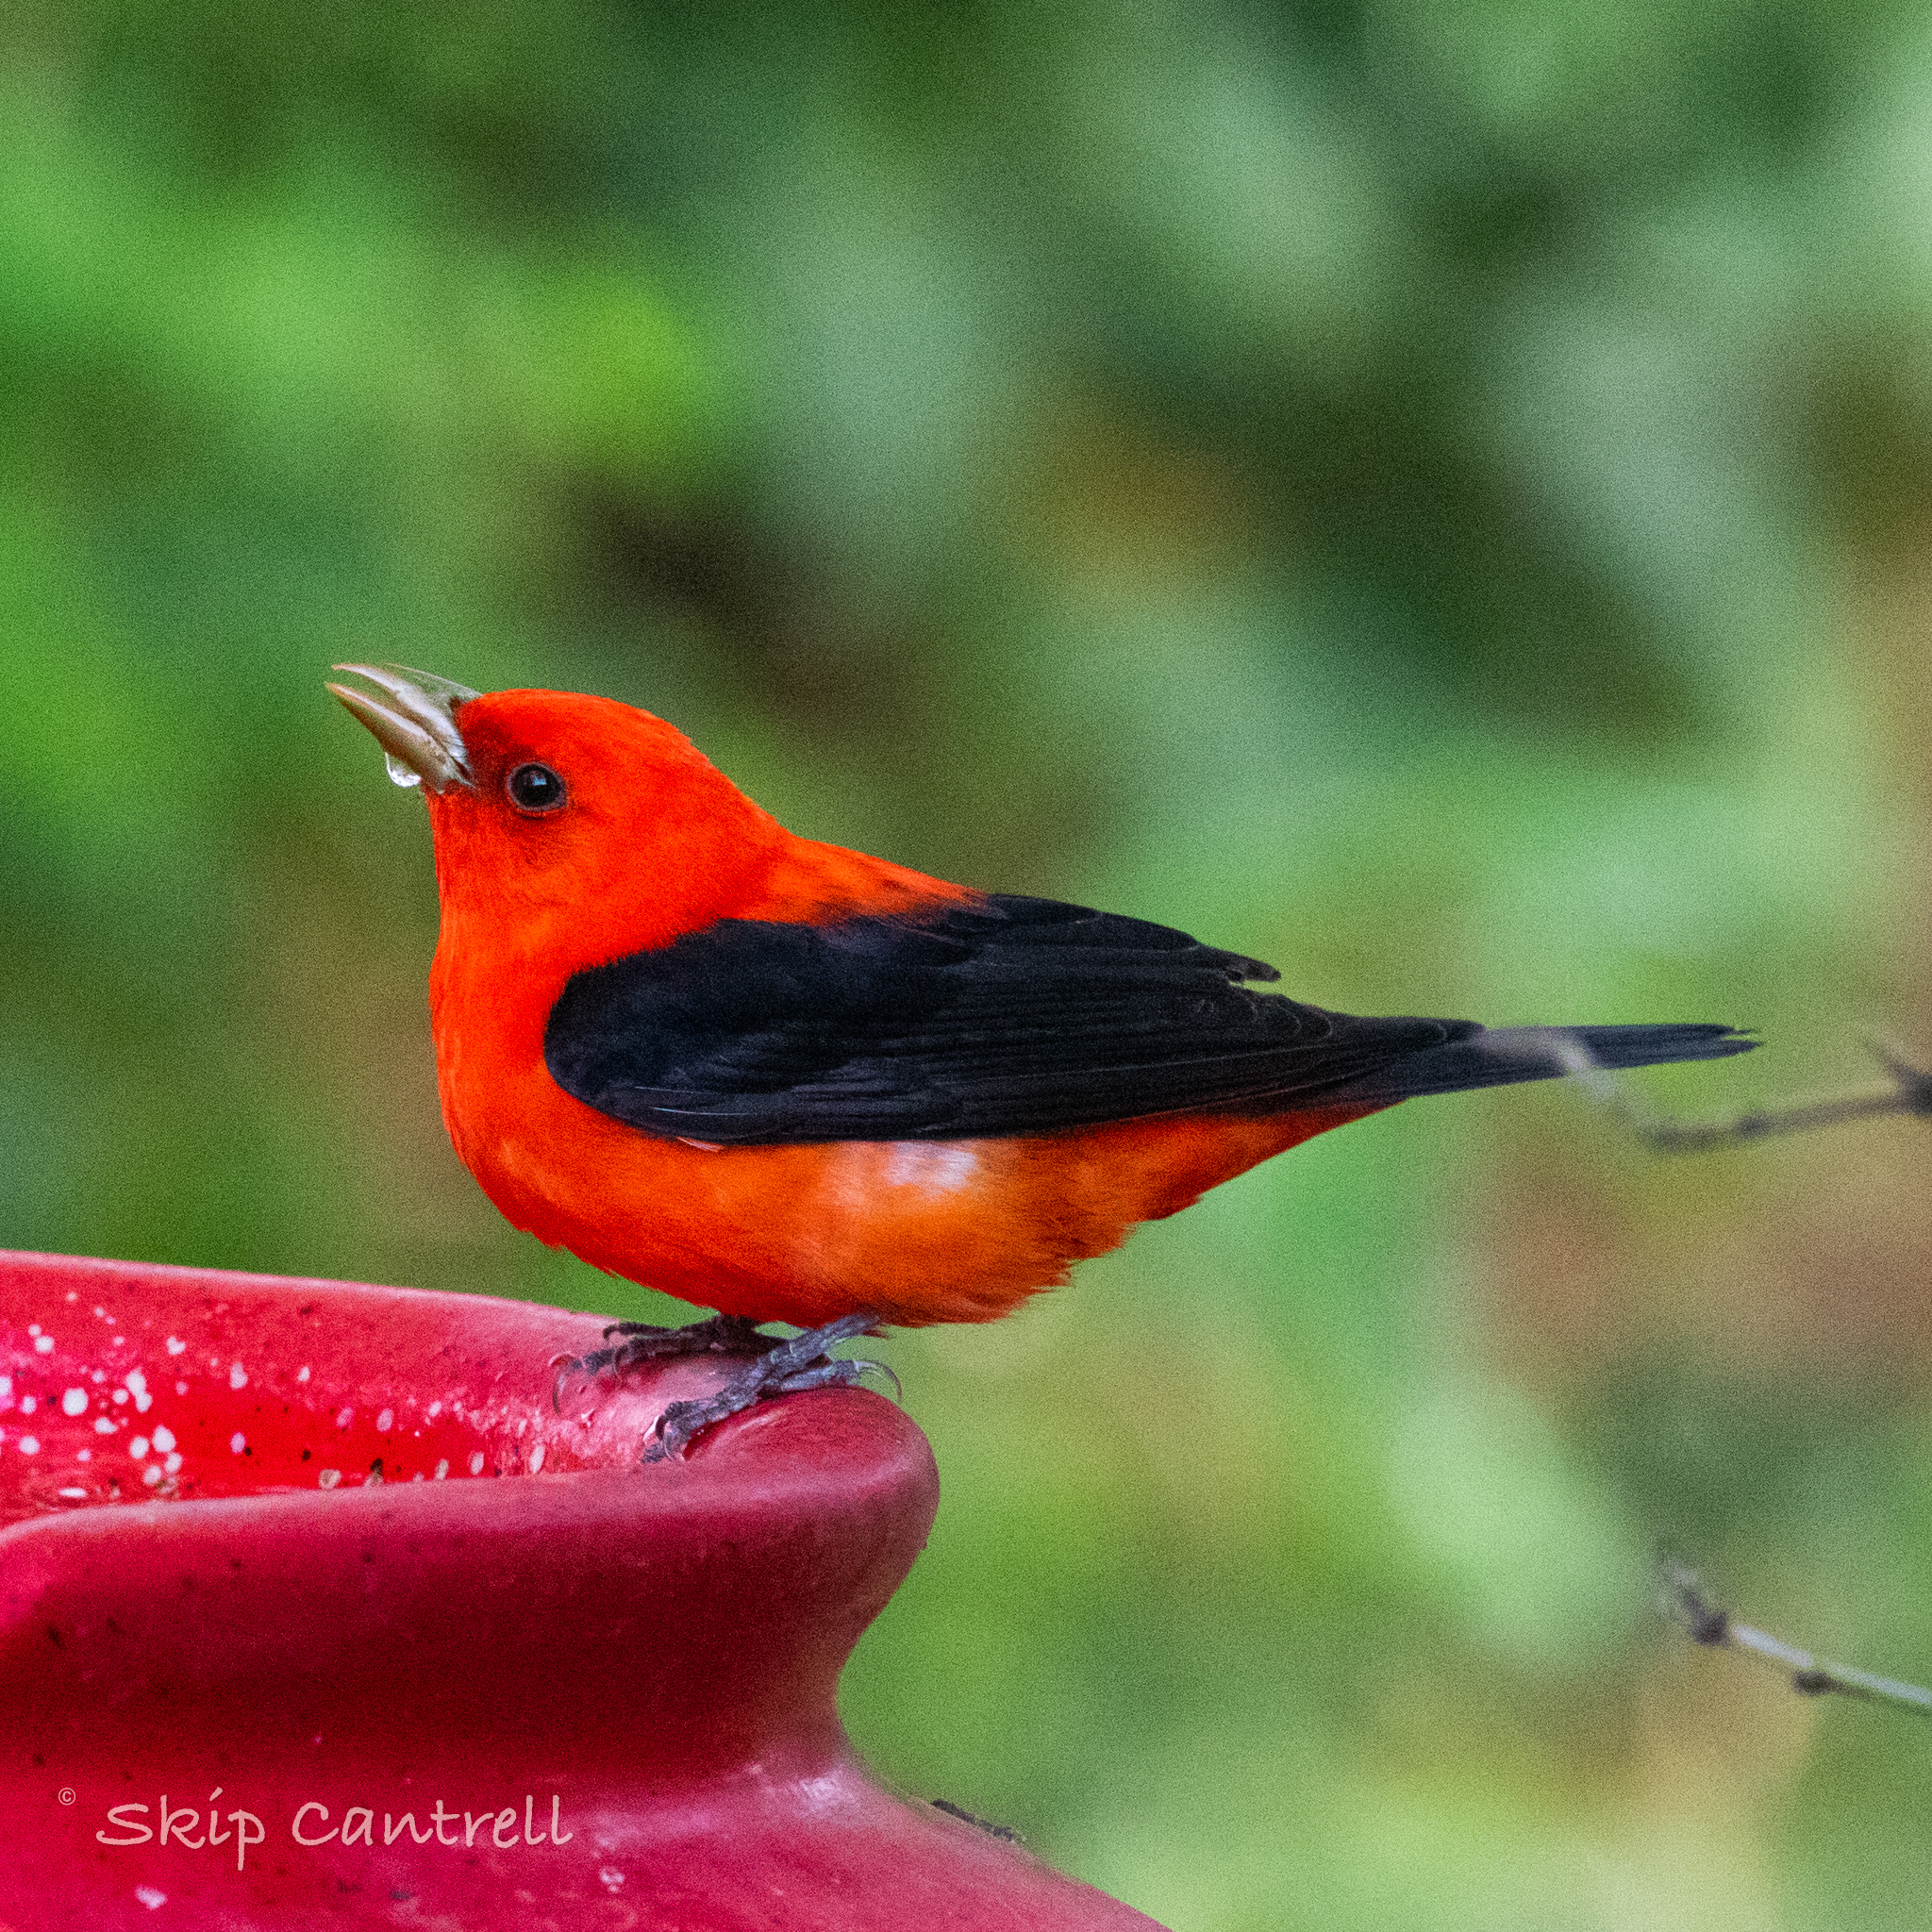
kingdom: Animalia
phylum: Chordata
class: Aves
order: Passeriformes
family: Cardinalidae
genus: Piranga
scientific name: Piranga olivacea
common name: Scarlet tanager
